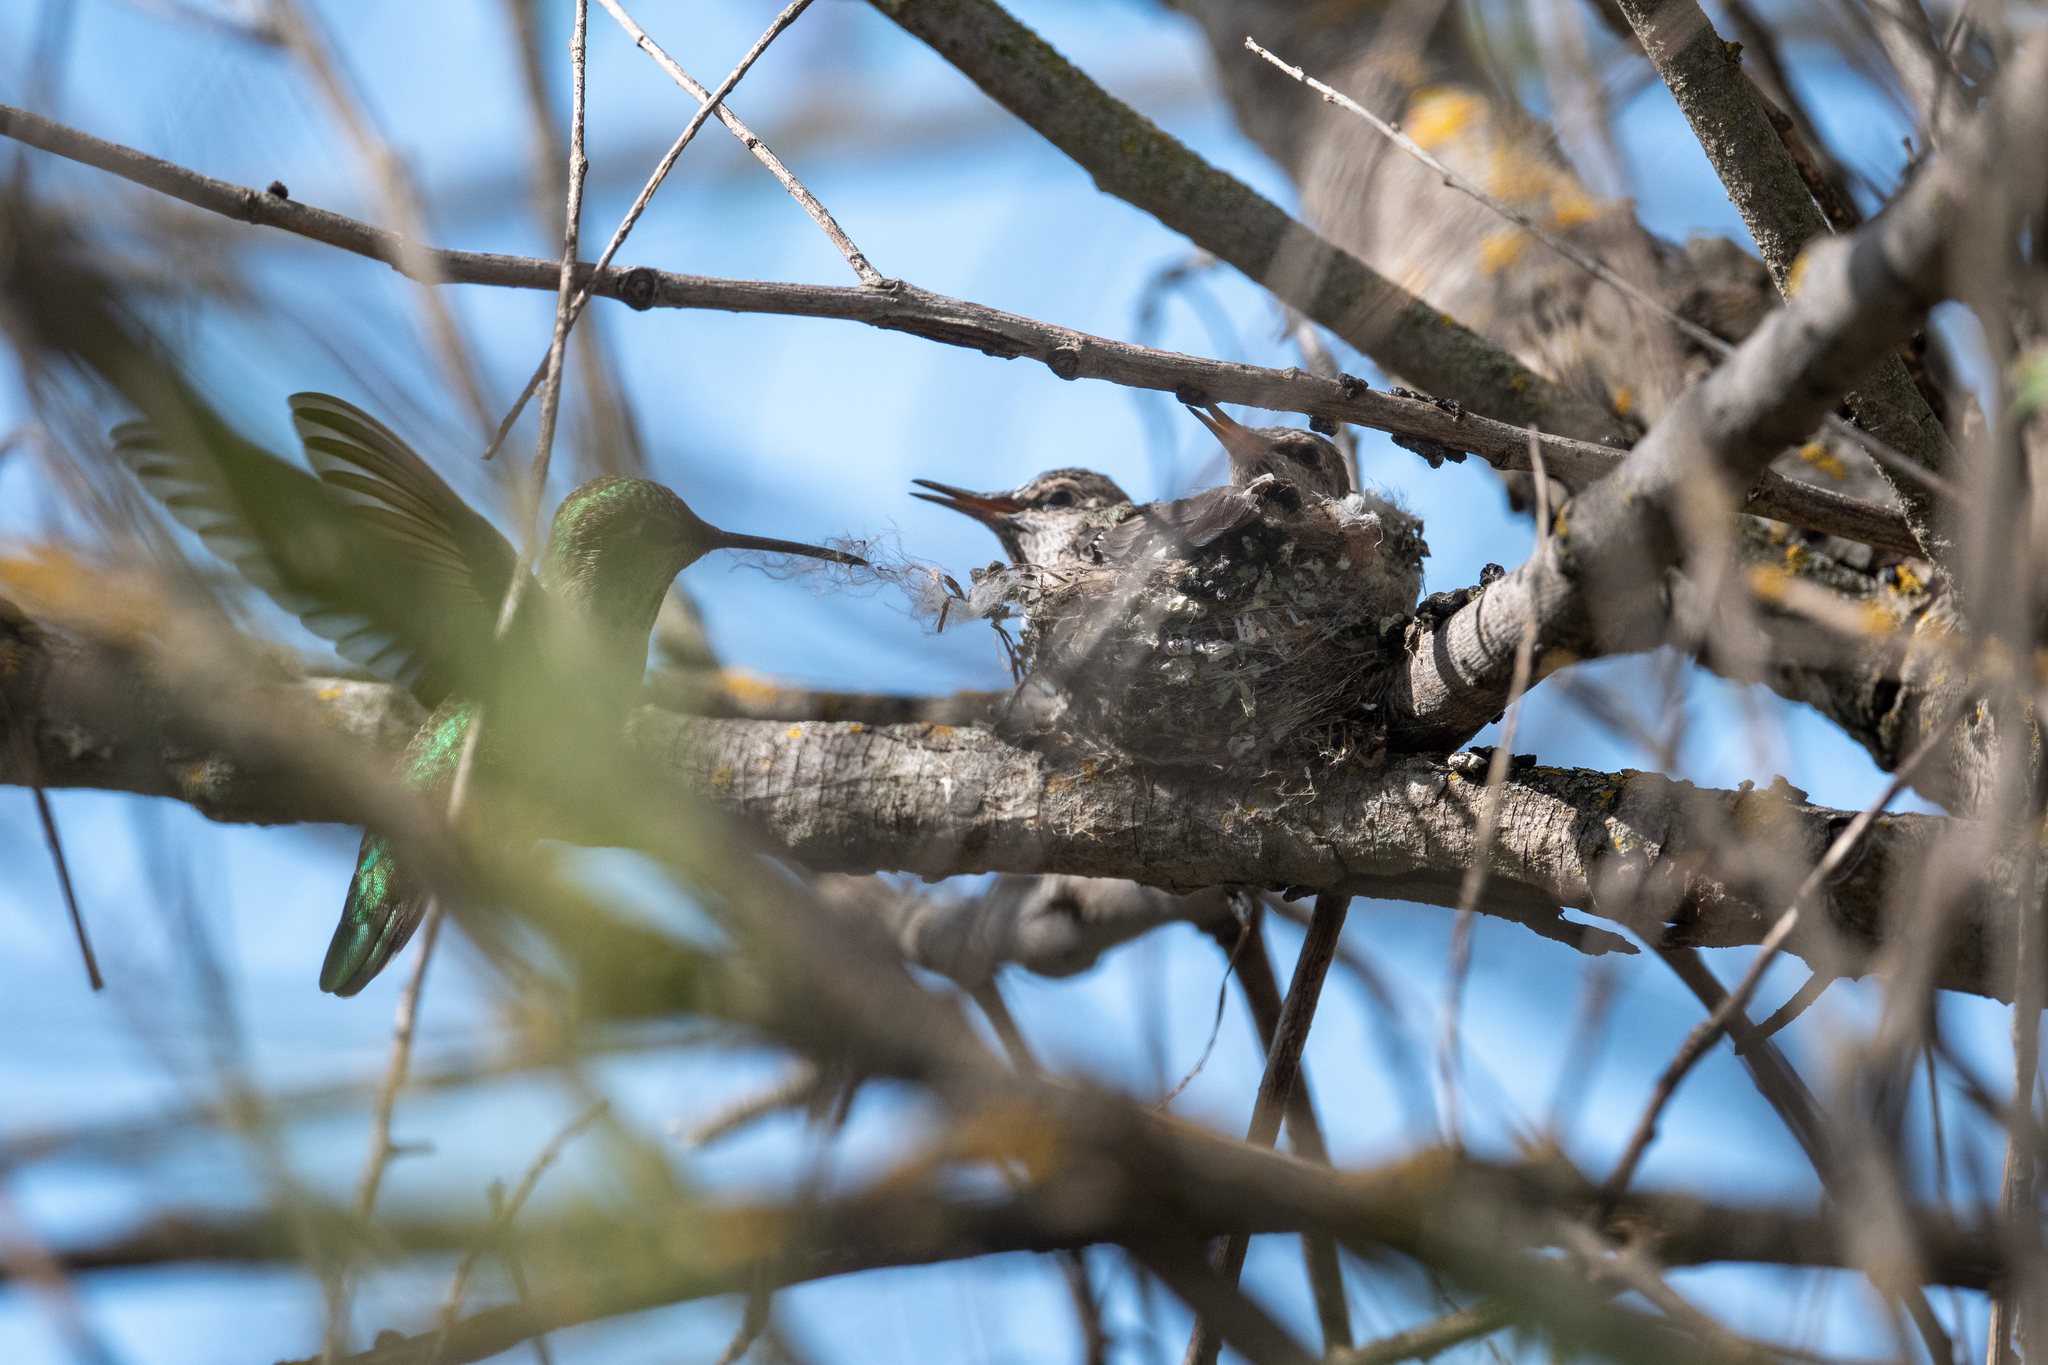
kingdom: Animalia
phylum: Chordata
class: Aves
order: Apodiformes
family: Trochilidae
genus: Calypte
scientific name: Calypte anna
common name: Anna's hummingbird
